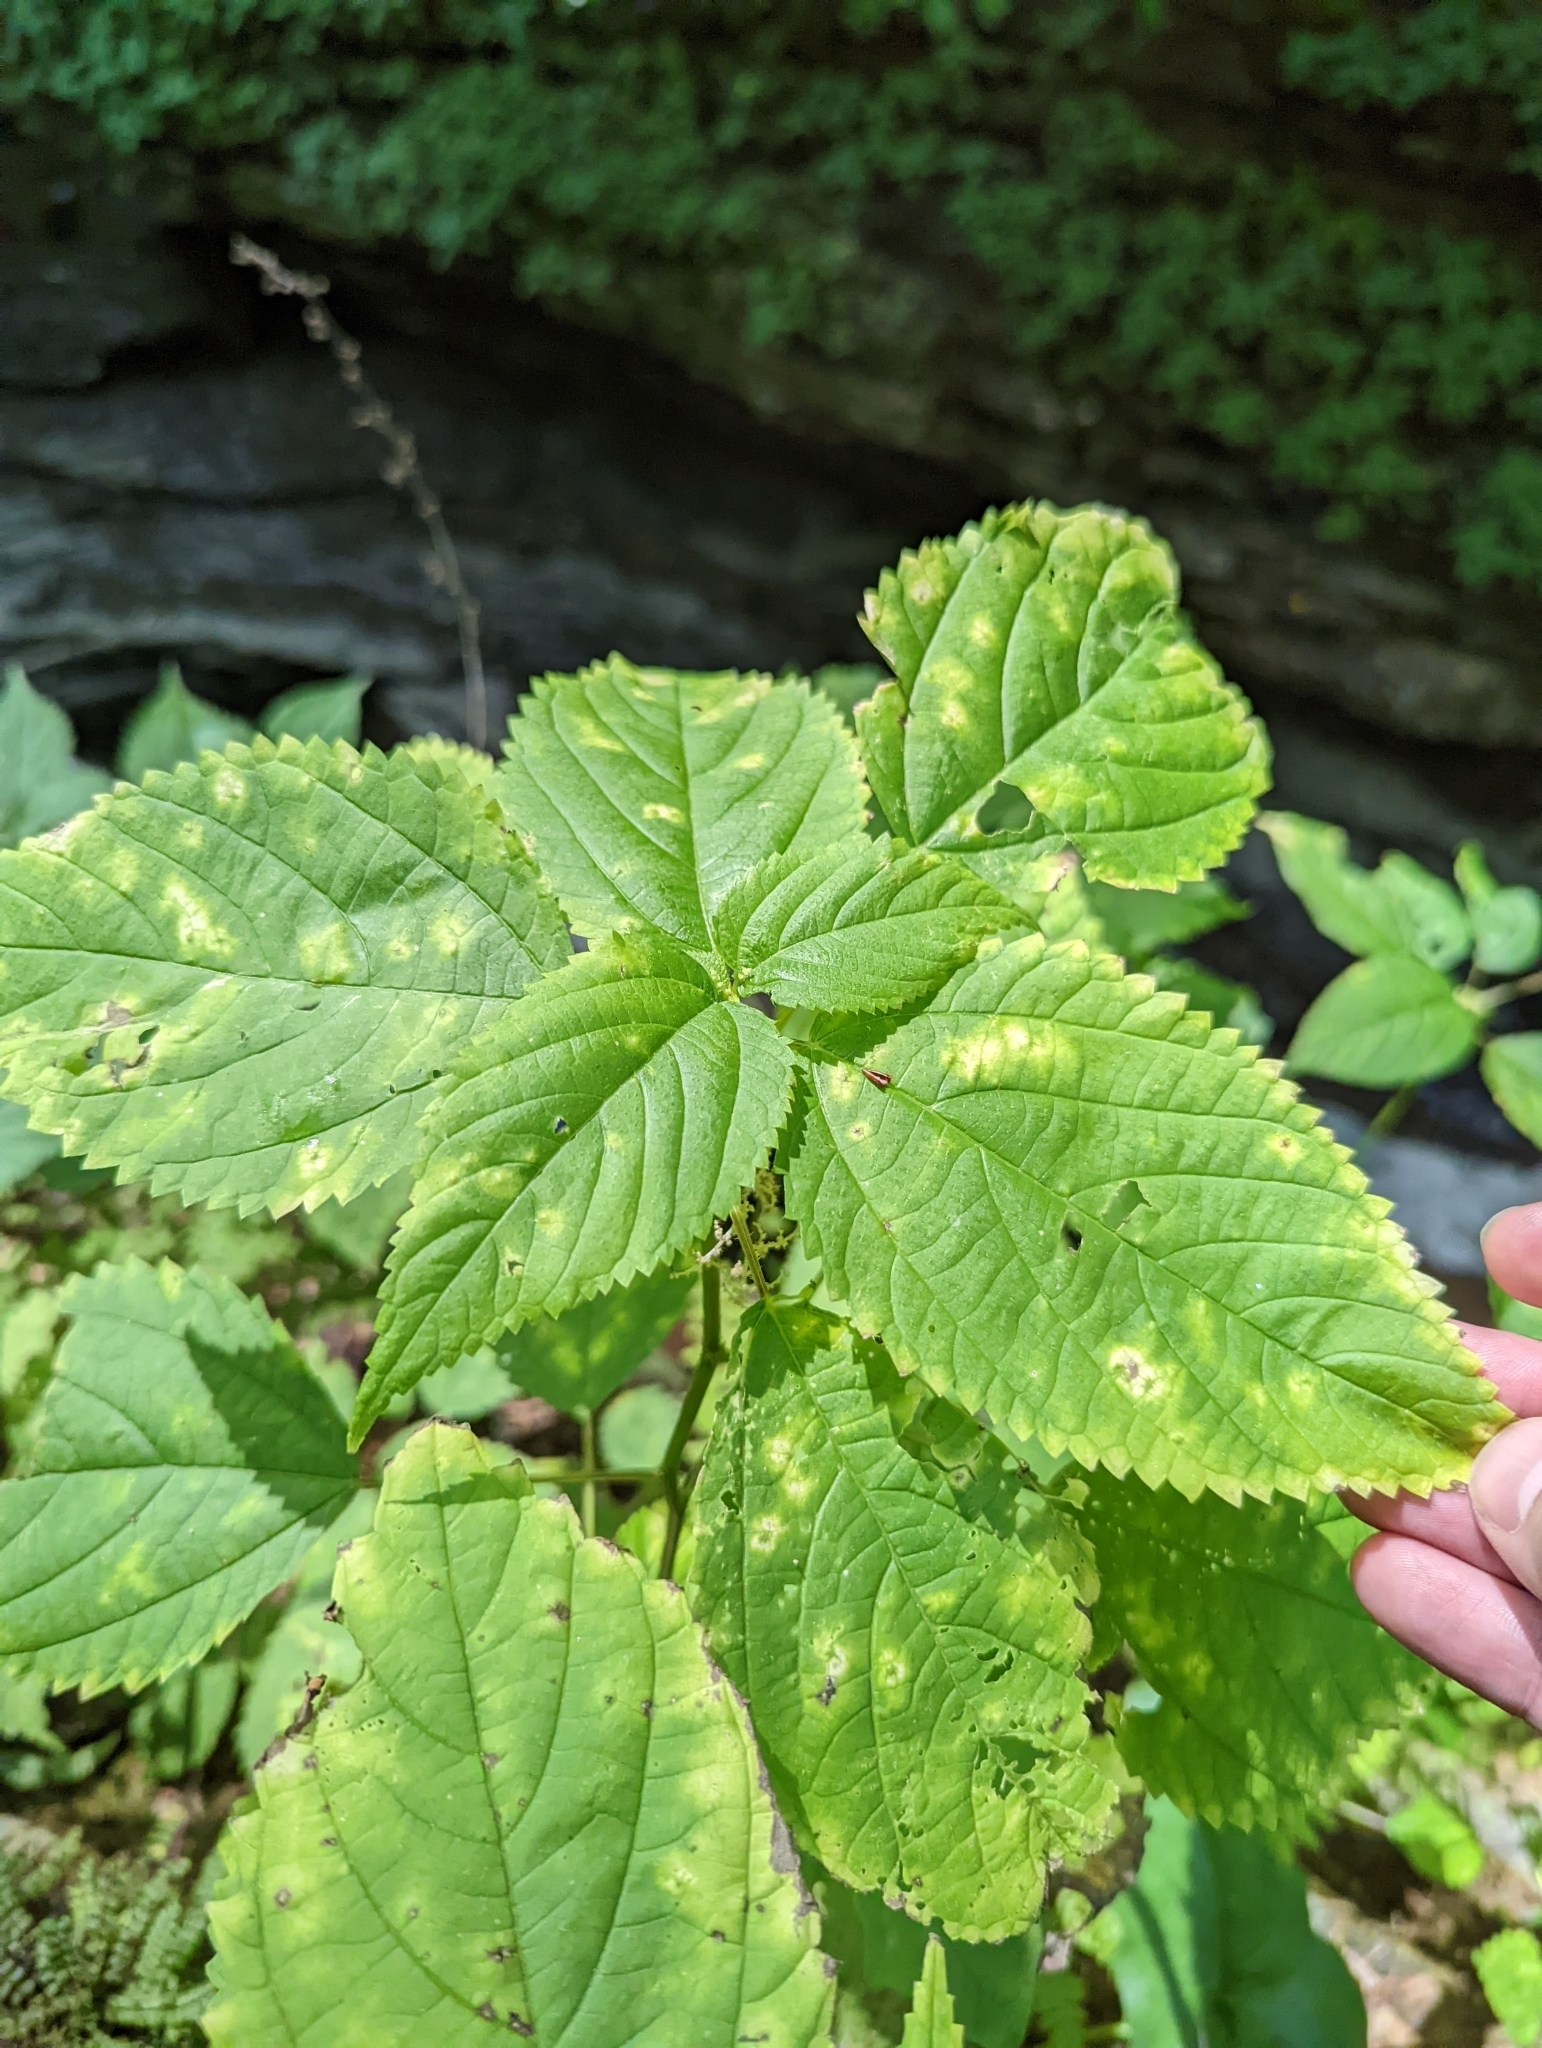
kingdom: Plantae
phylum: Tracheophyta
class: Magnoliopsida
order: Rosales
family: Urticaceae
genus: Laportea
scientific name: Laportea canadensis
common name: Canada nettle
